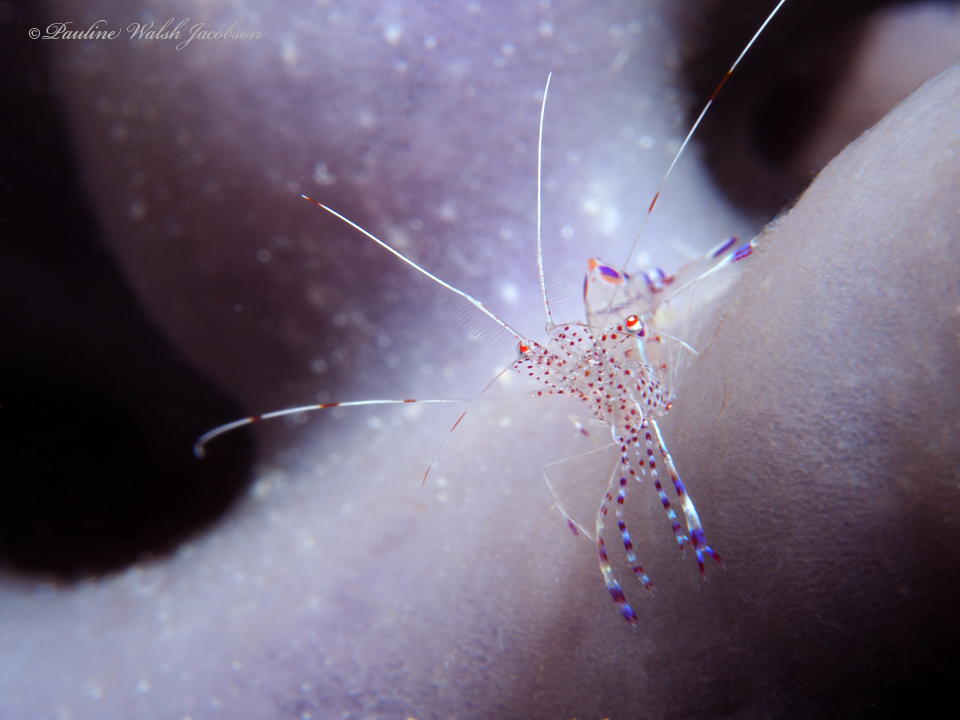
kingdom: Animalia
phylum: Arthropoda
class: Malacostraca
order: Decapoda
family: Palaemonidae
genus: Periclimenes
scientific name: Periclimenes yucatanicus
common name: Spotted cleaning shrimp
